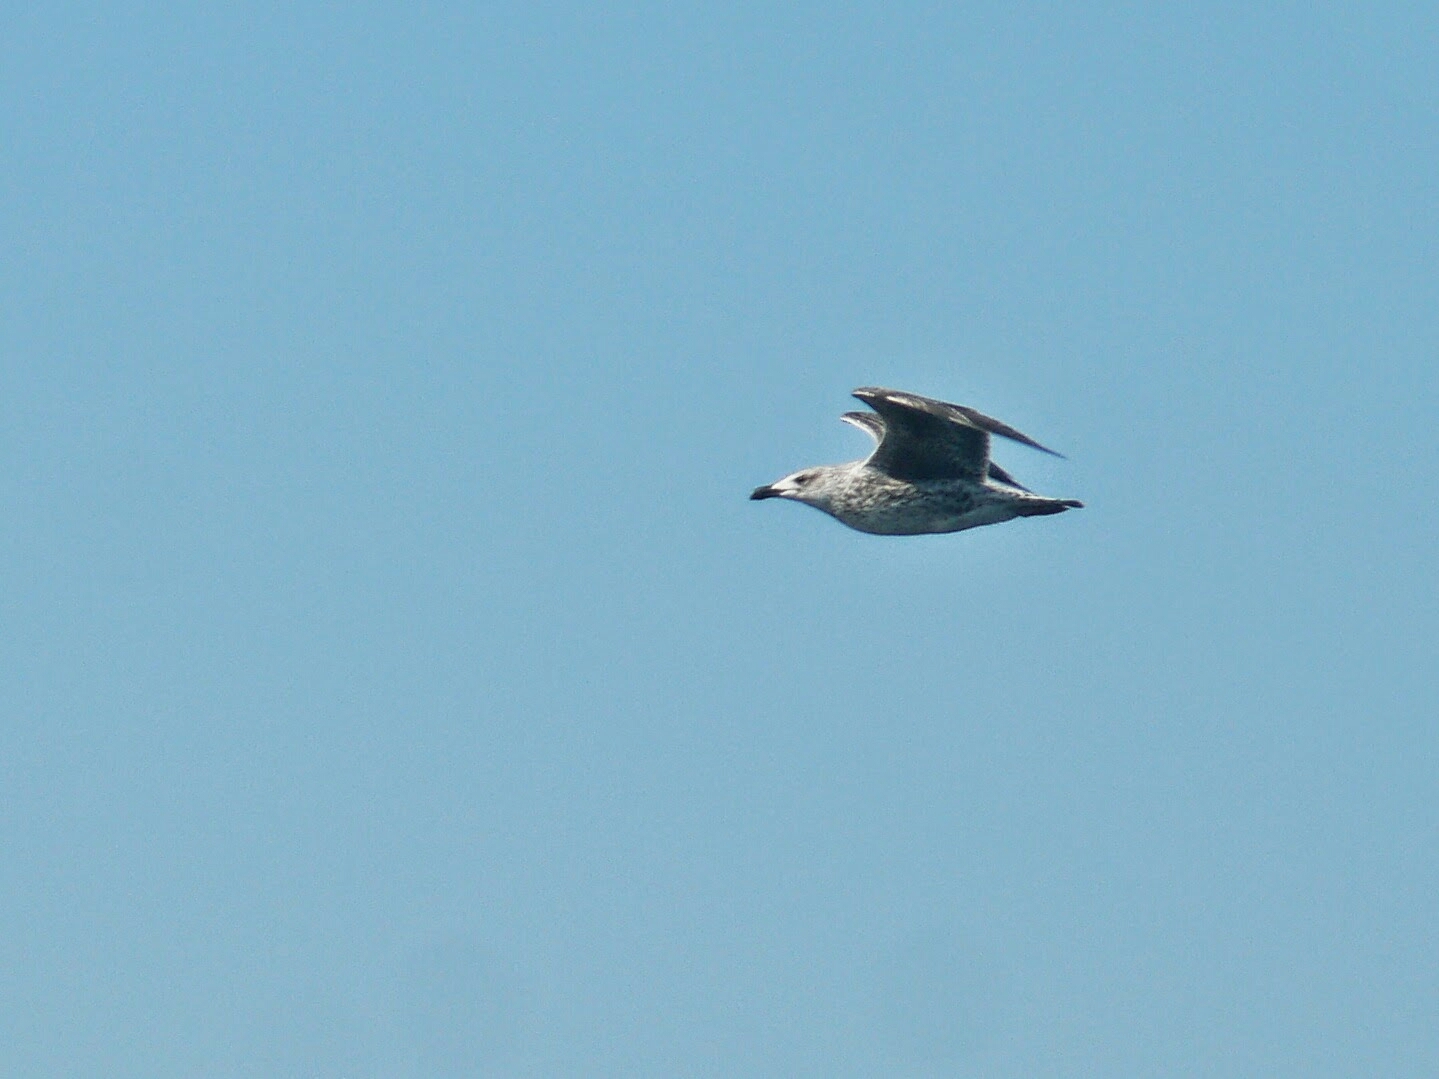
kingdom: Animalia
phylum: Chordata
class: Aves
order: Charadriiformes
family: Laridae
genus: Larus
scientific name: Larus marinus
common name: Great black-backed gull
